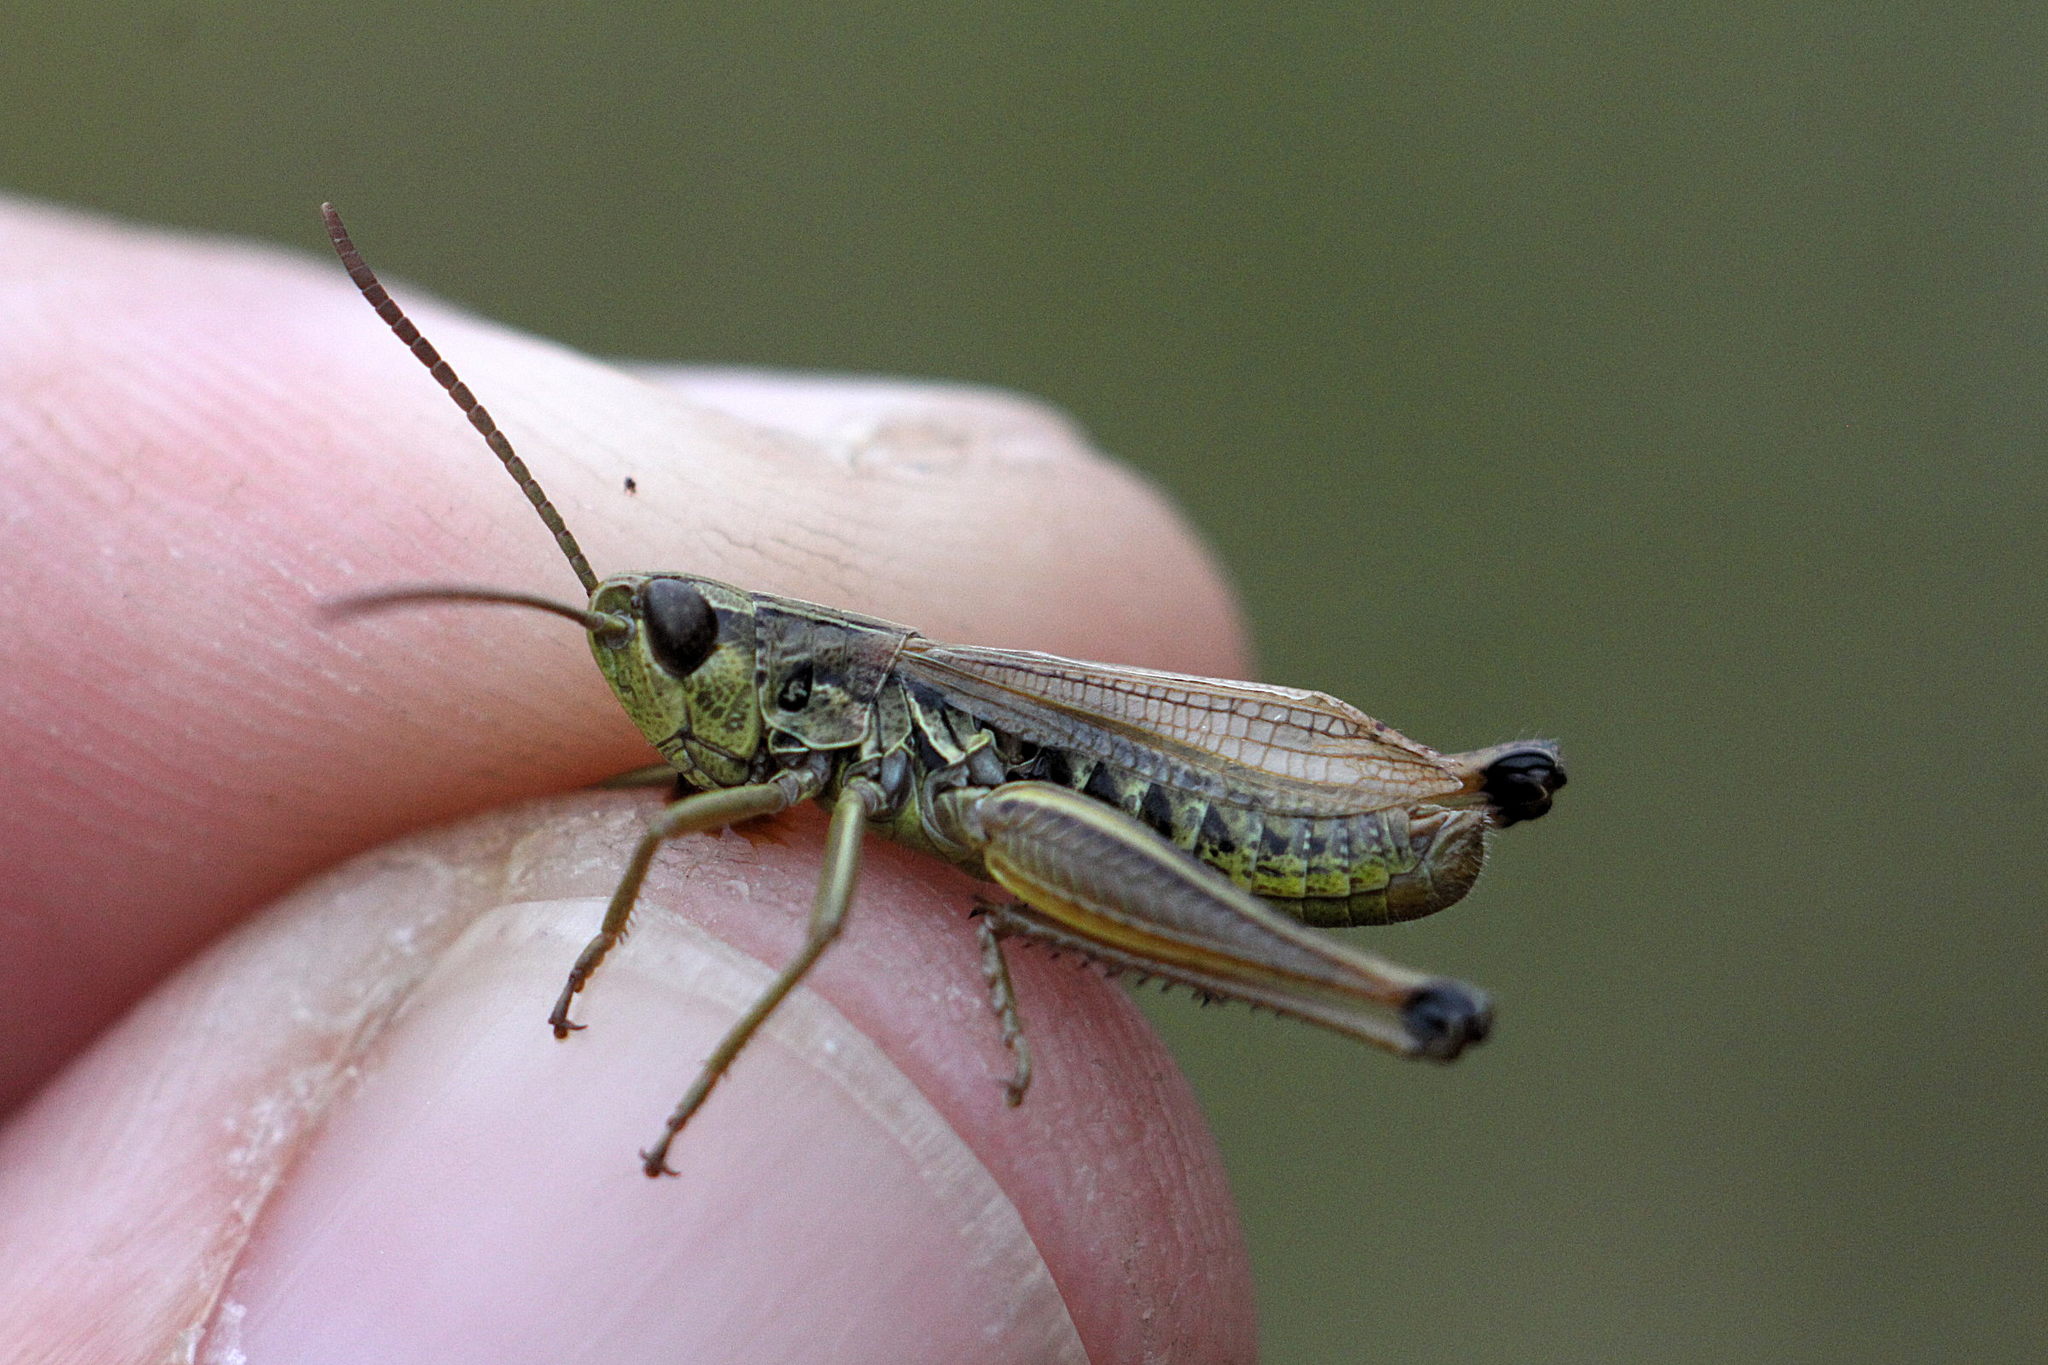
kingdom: Animalia
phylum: Arthropoda
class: Insecta
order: Orthoptera
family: Acrididae
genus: Pseudochorthippus
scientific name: Pseudochorthippus parallelus
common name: Meadow grasshopper
